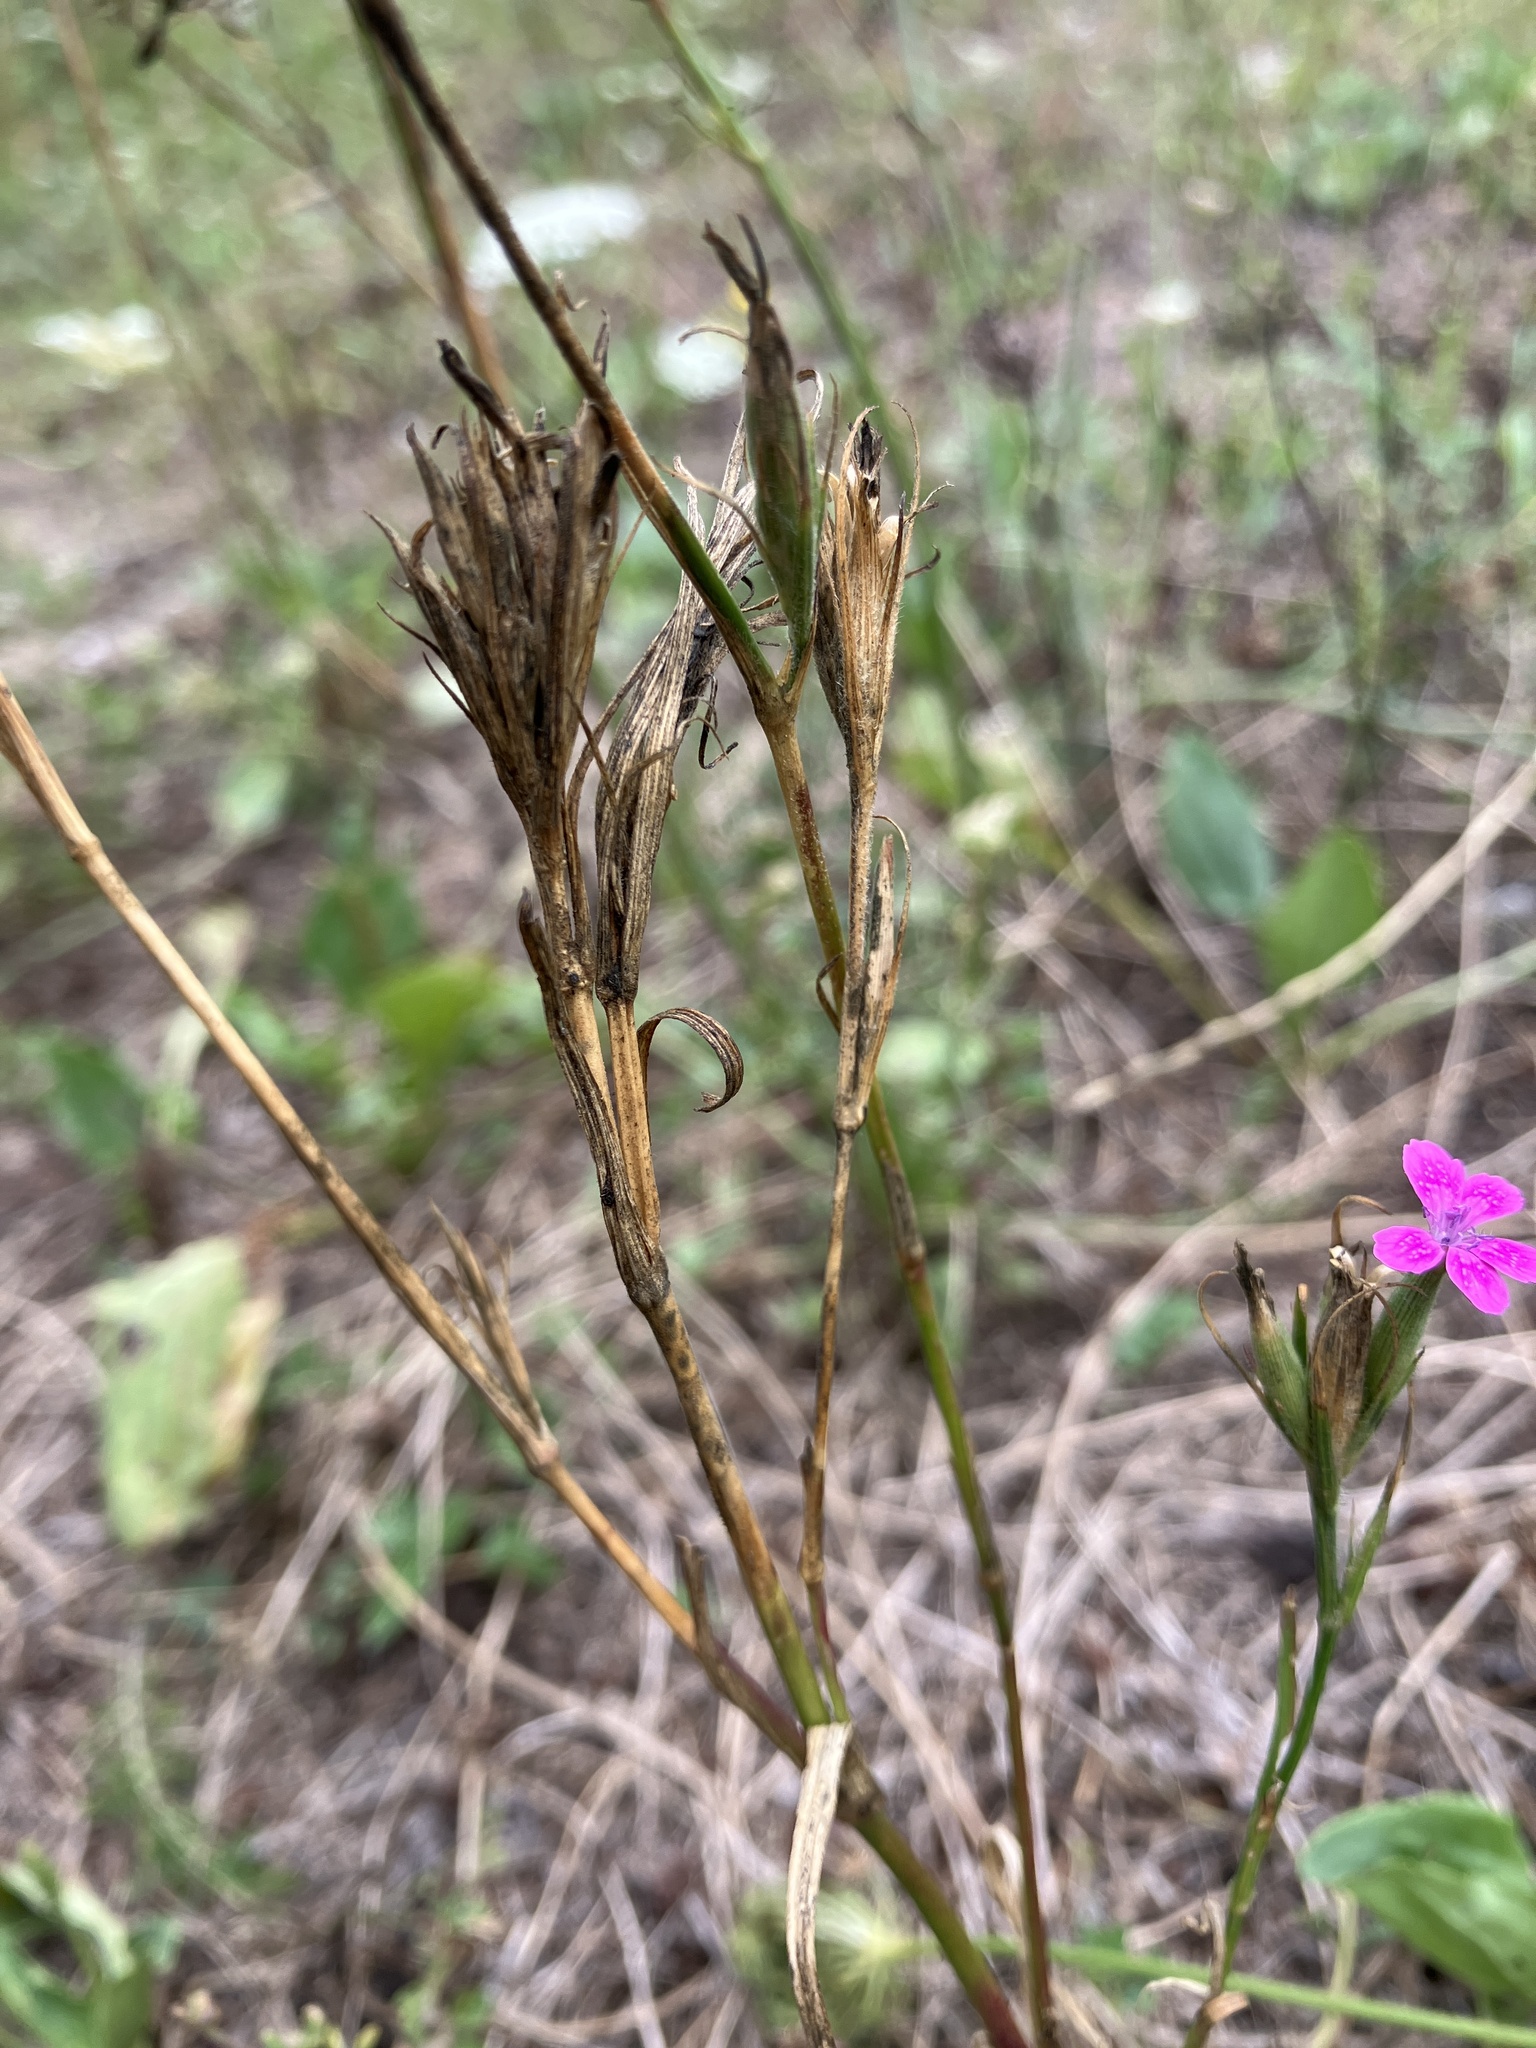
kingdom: Plantae
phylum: Tracheophyta
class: Magnoliopsida
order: Caryophyllales
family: Caryophyllaceae
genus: Dianthus
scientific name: Dianthus armeria
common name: Deptford pink
